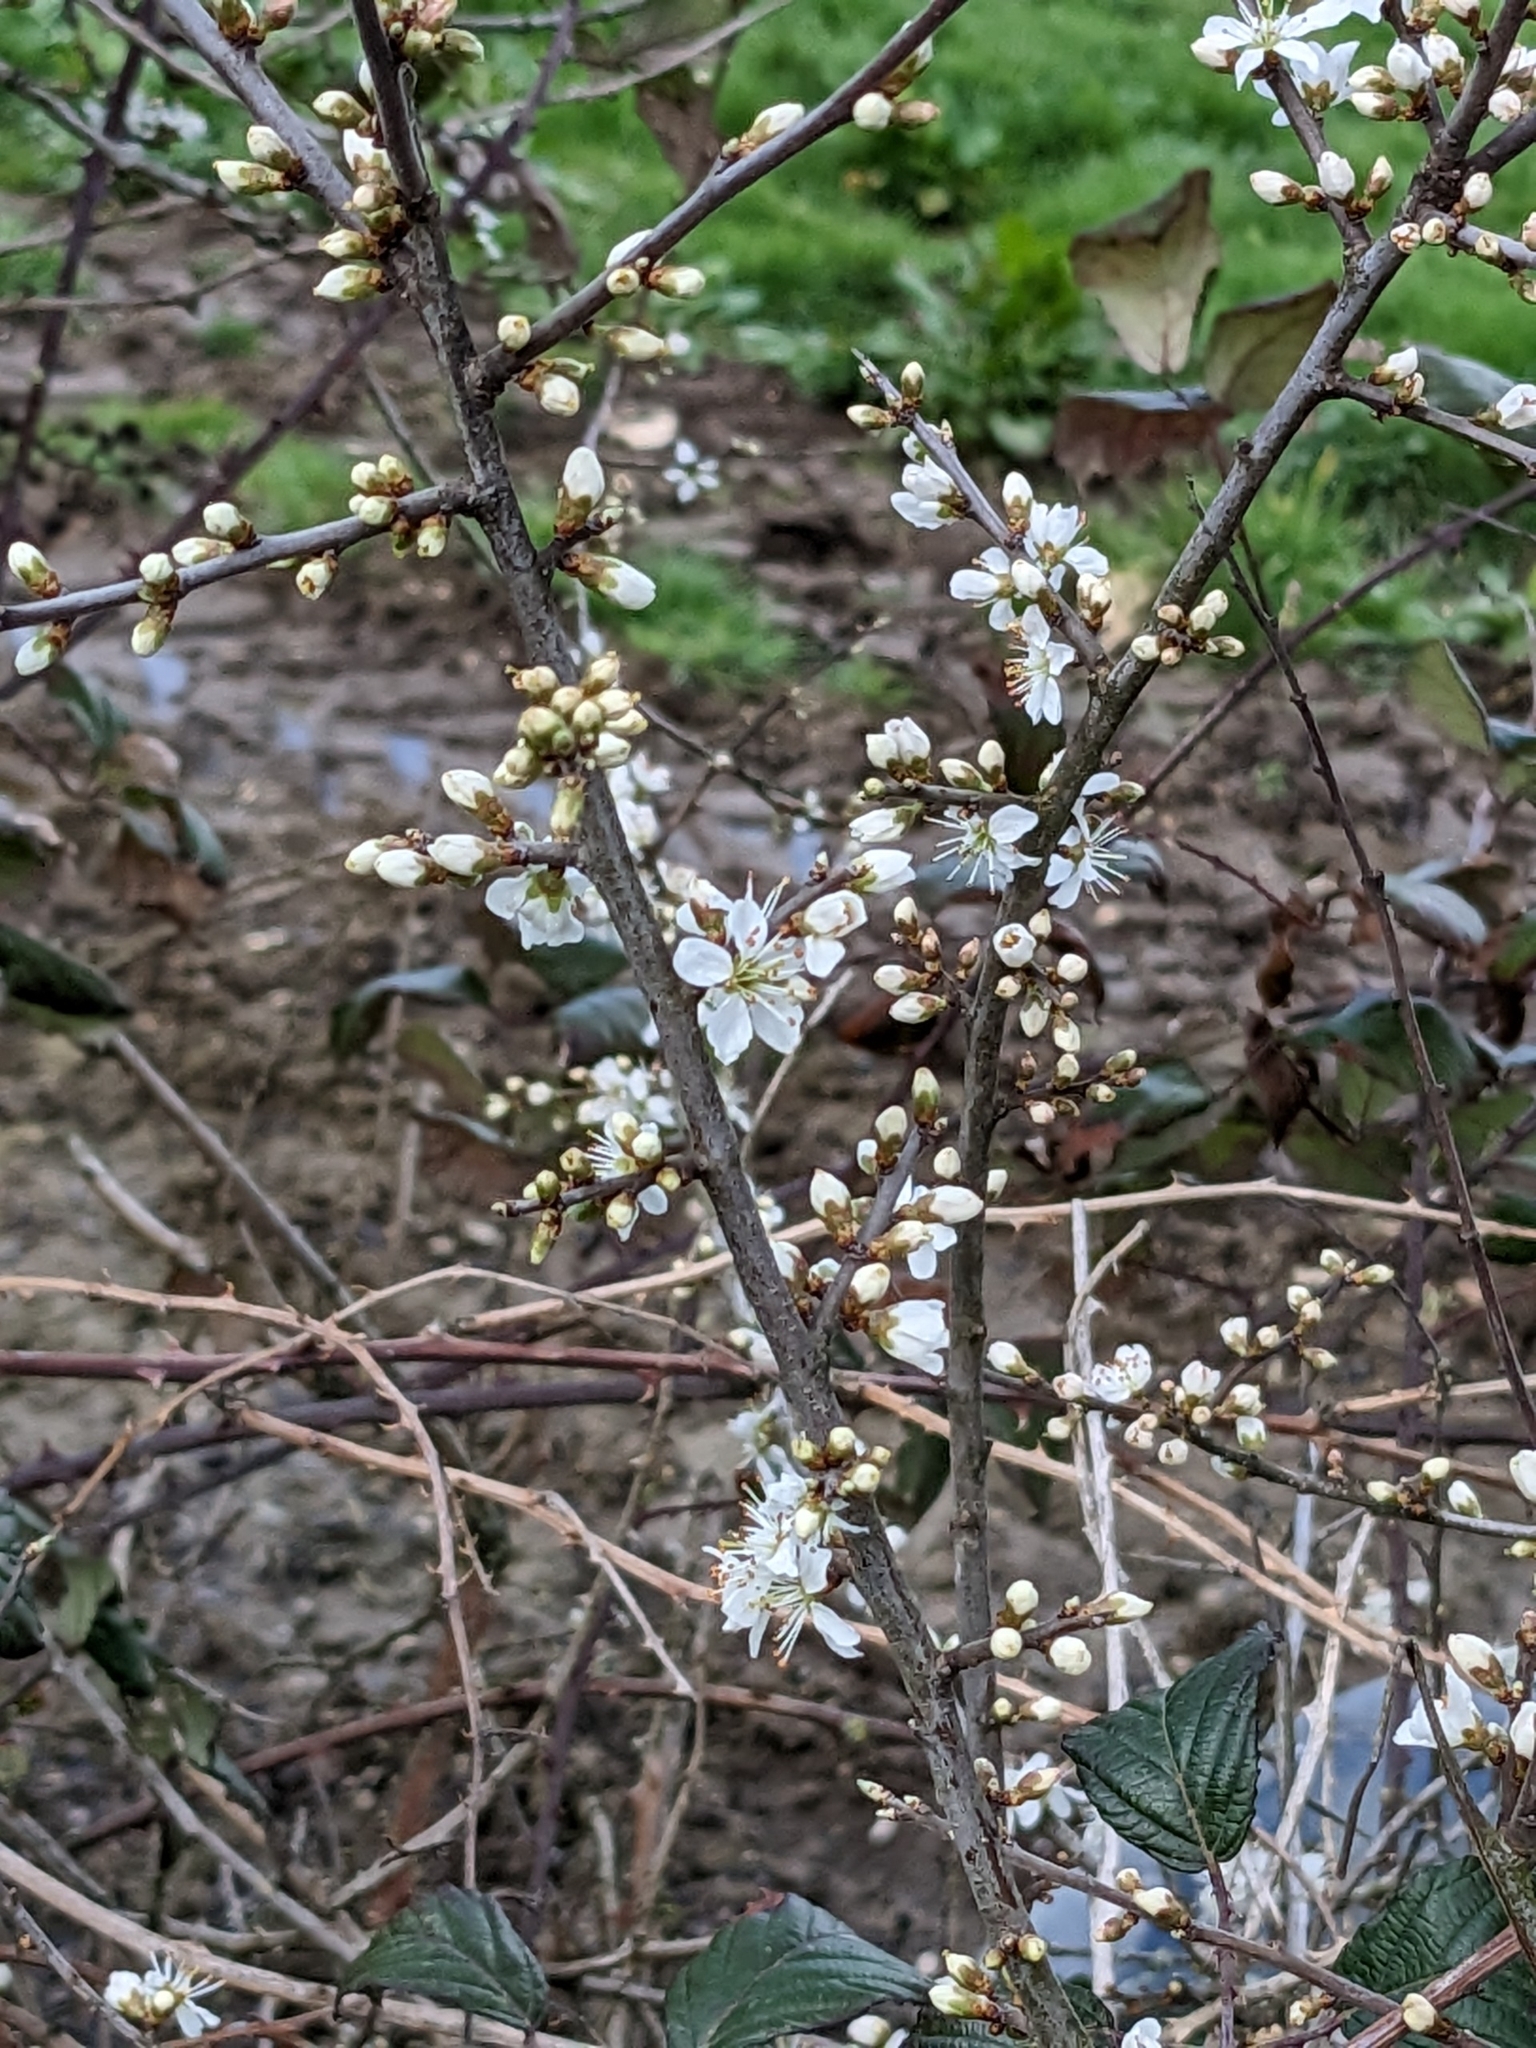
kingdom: Plantae
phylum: Tracheophyta
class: Magnoliopsida
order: Rosales
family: Rosaceae
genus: Prunus
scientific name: Prunus spinosa
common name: Blackthorn
